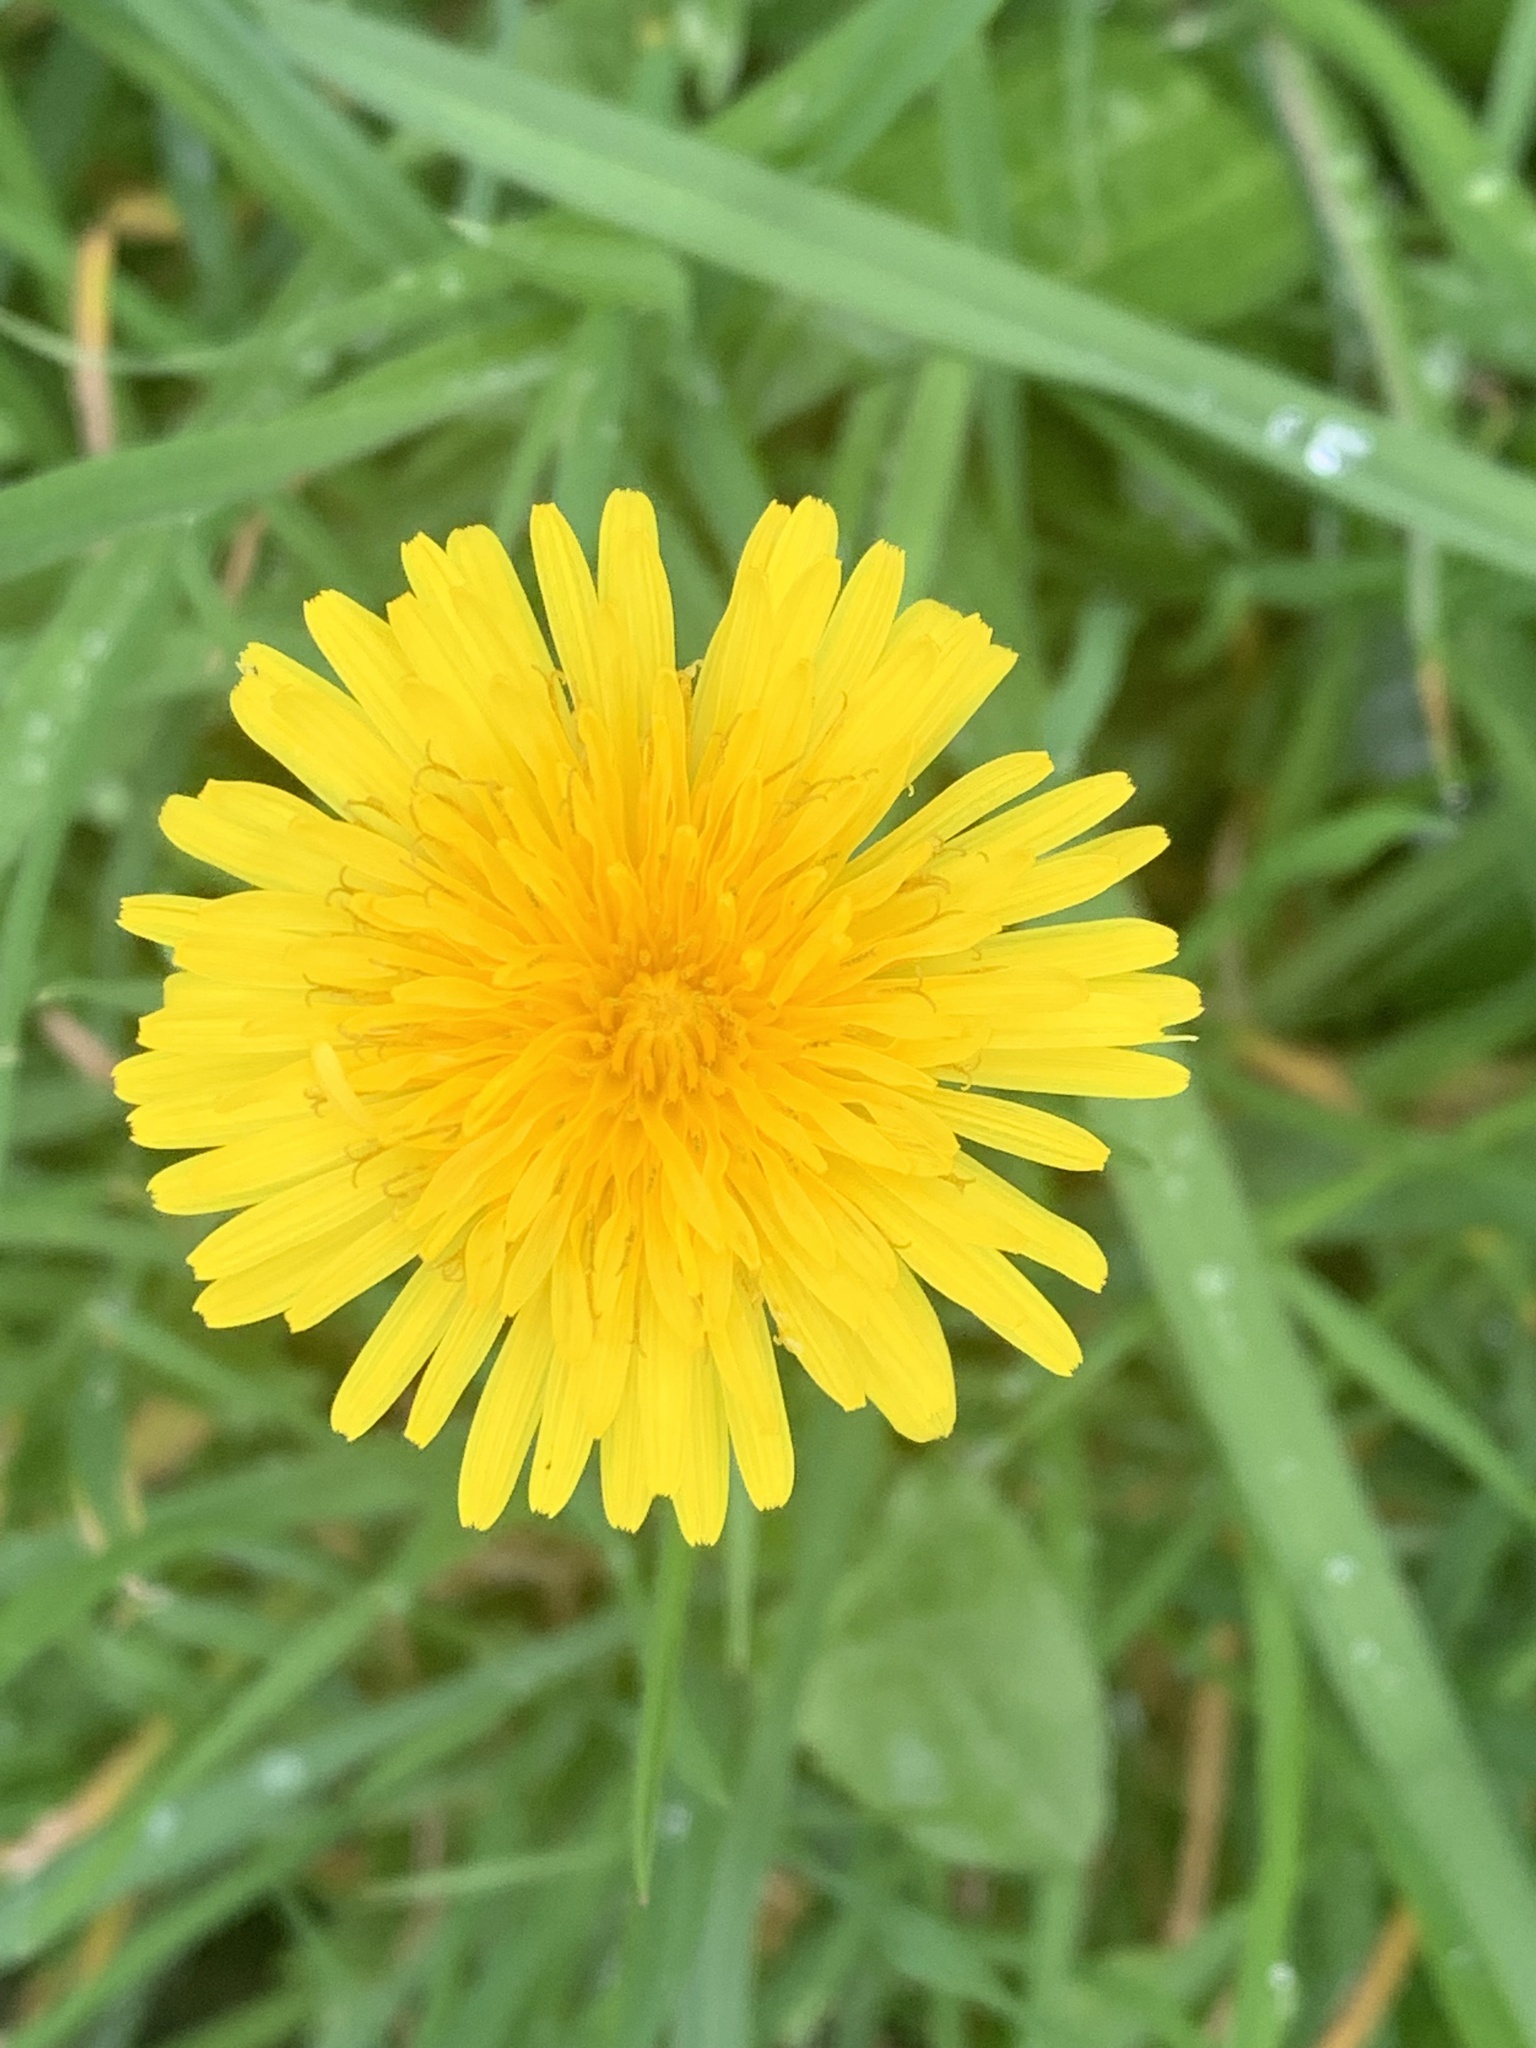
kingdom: Plantae
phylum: Tracheophyta
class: Magnoliopsida
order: Asterales
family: Asteraceae
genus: Taraxacum
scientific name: Taraxacum officinale
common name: Common dandelion
